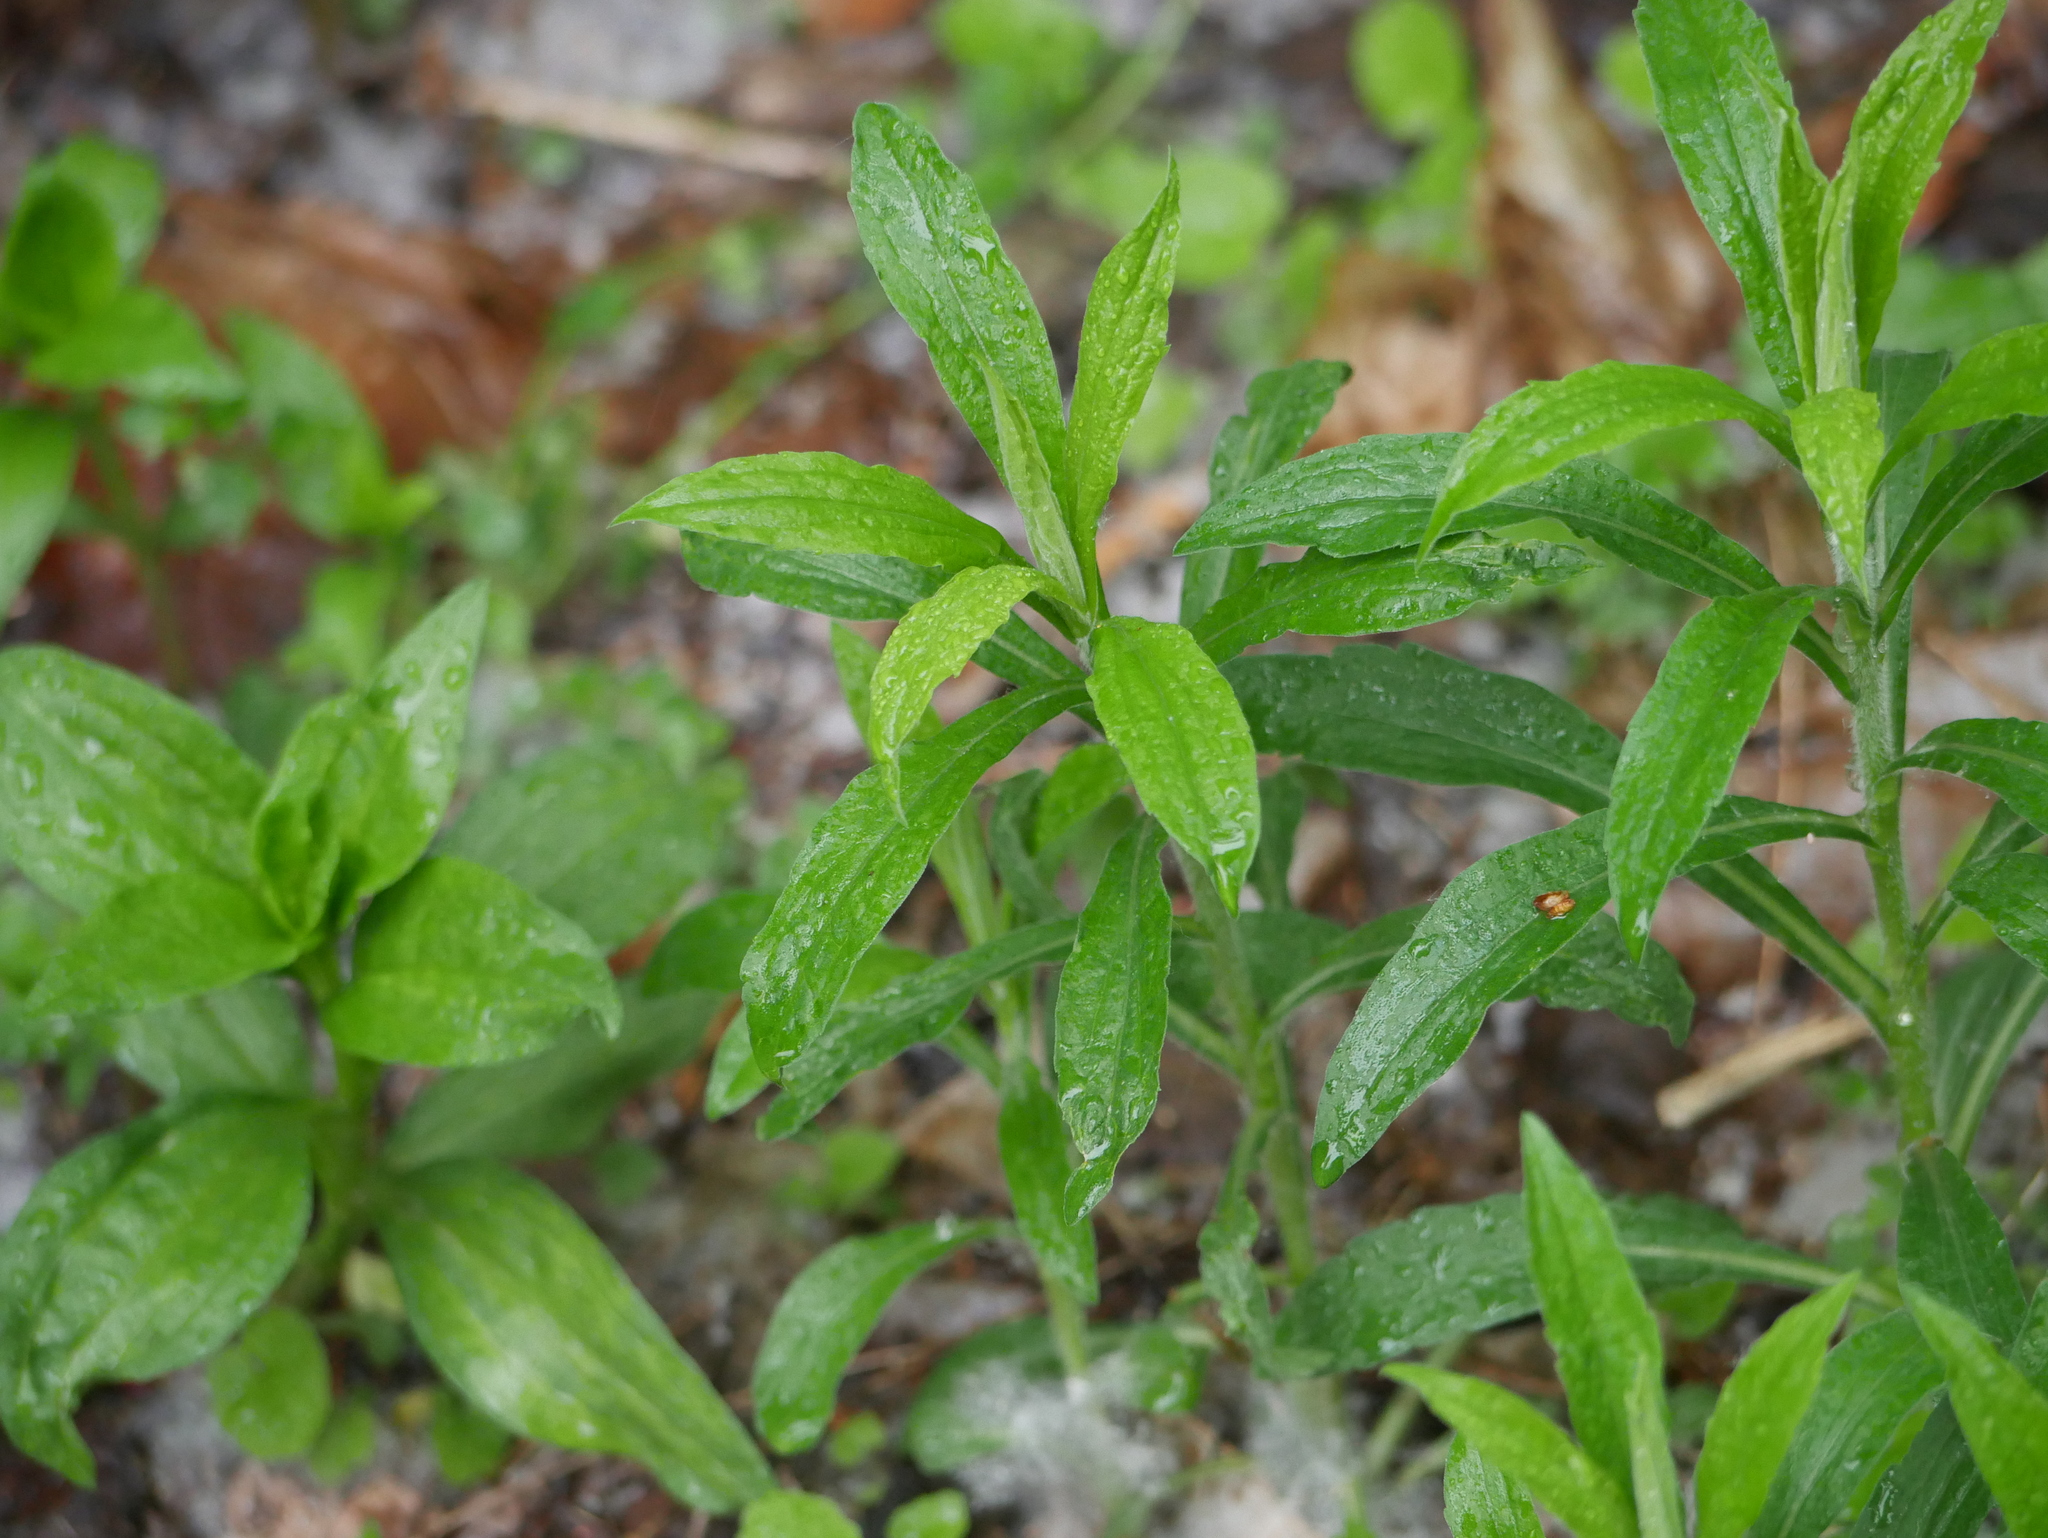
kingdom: Plantae
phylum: Tracheophyta
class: Magnoliopsida
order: Asterales
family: Asteraceae
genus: Solidago
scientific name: Solidago canadensis
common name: Canada goldenrod
